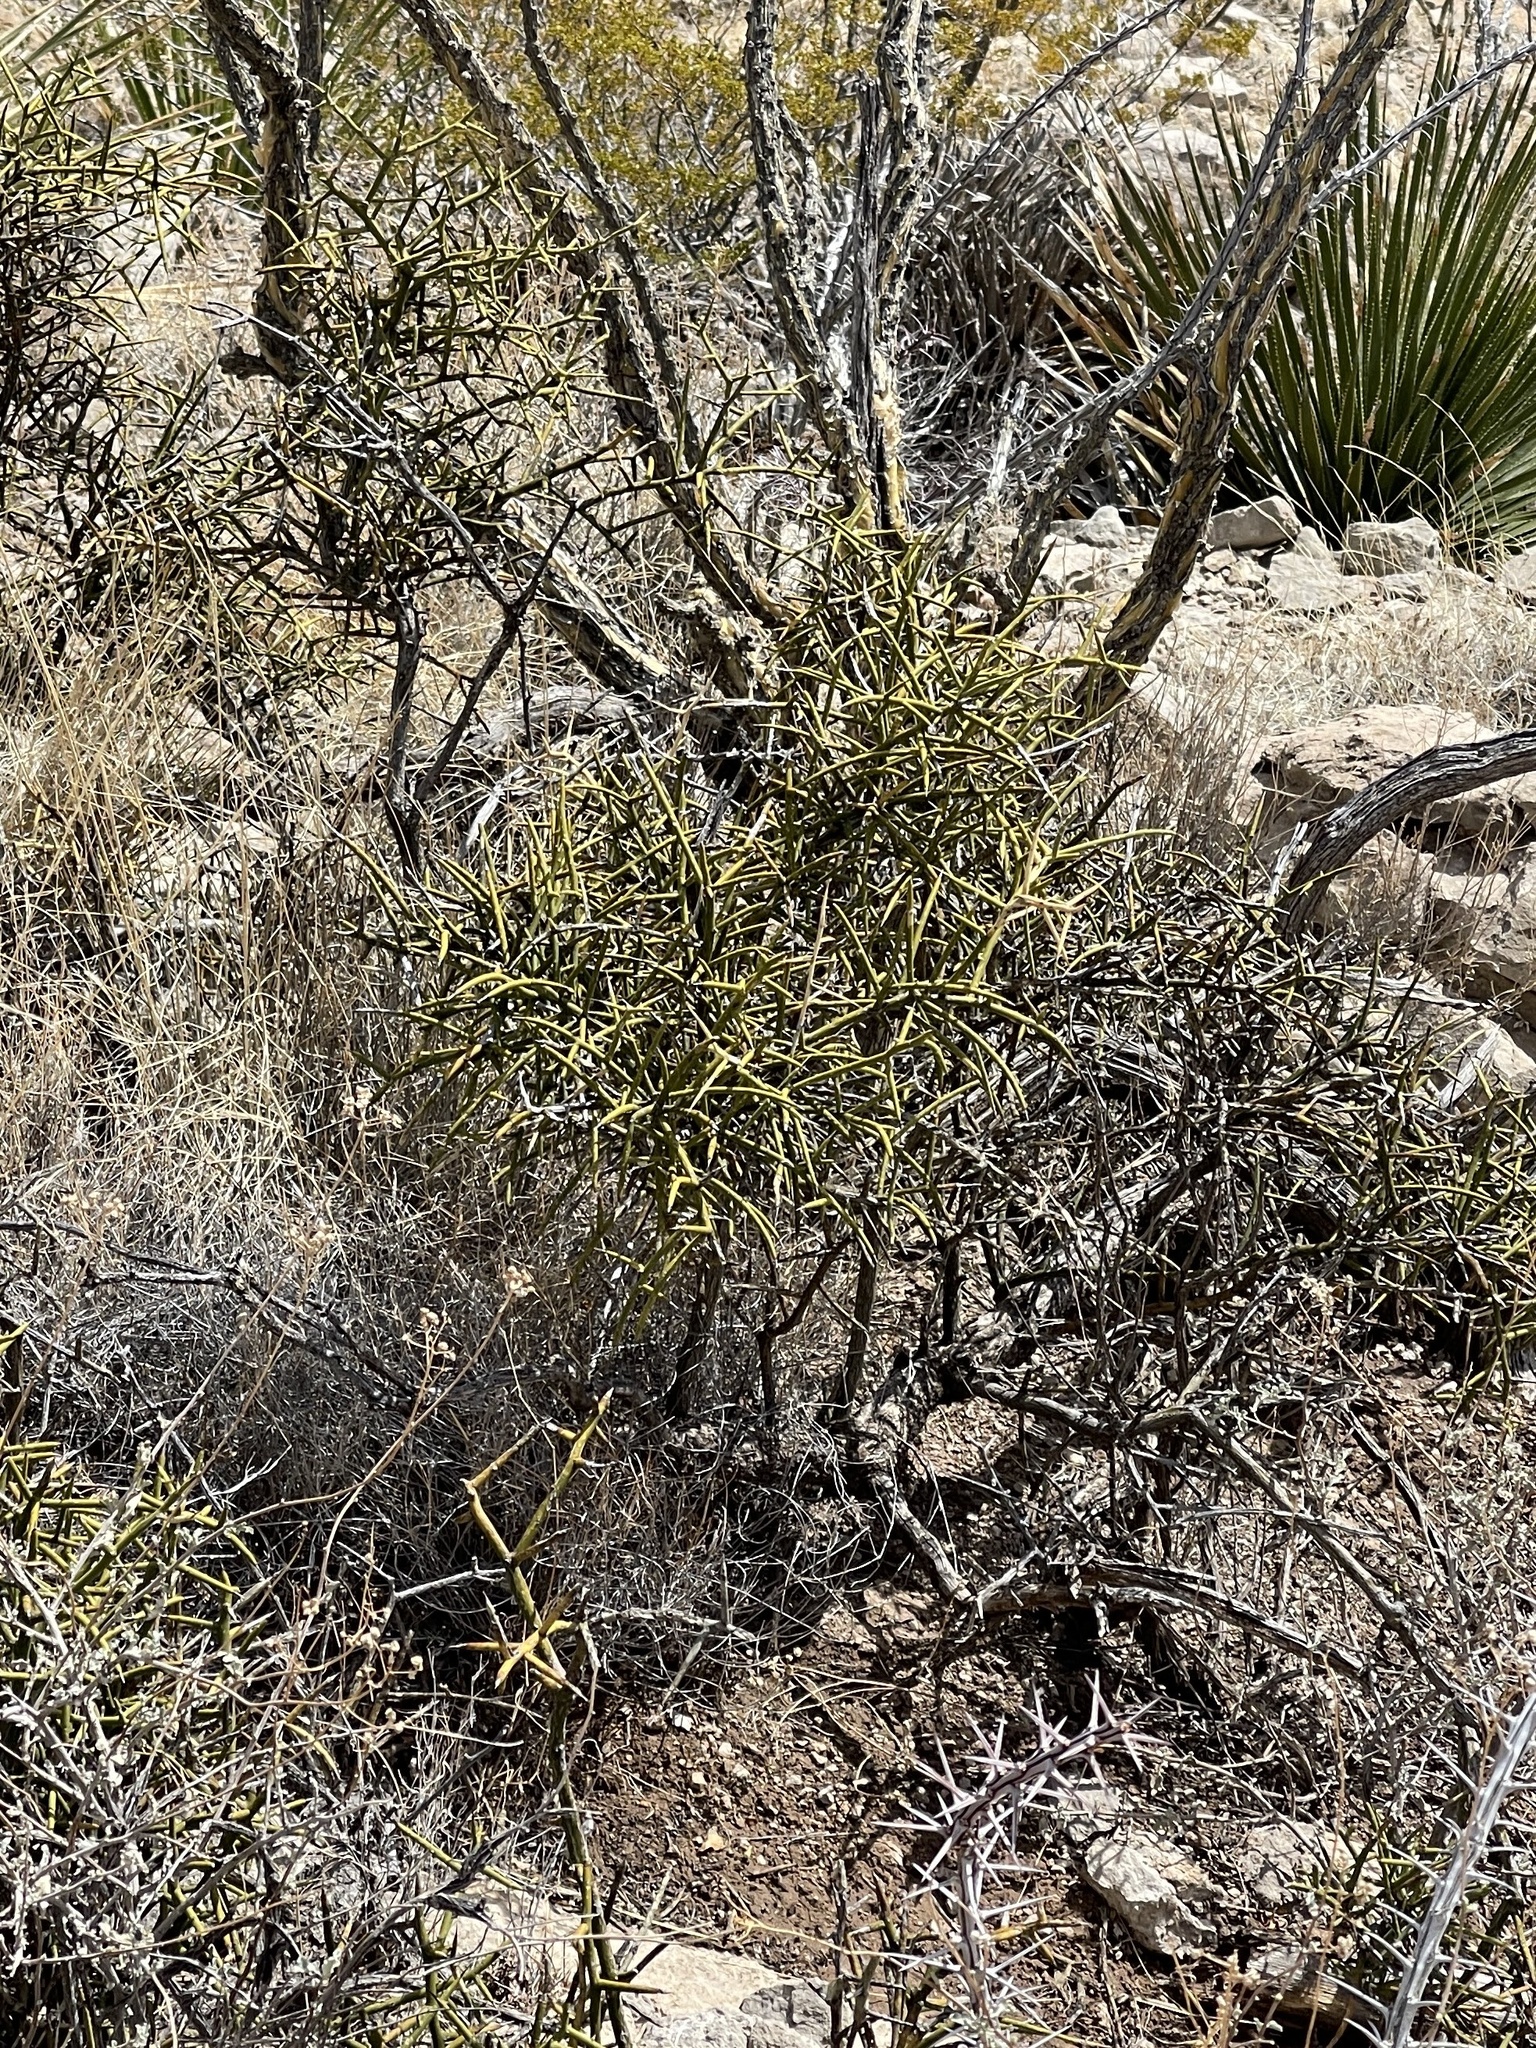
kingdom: Plantae
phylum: Tracheophyta
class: Magnoliopsida
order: Brassicales
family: Koeberliniaceae
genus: Koeberlinia
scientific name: Koeberlinia spinosa
